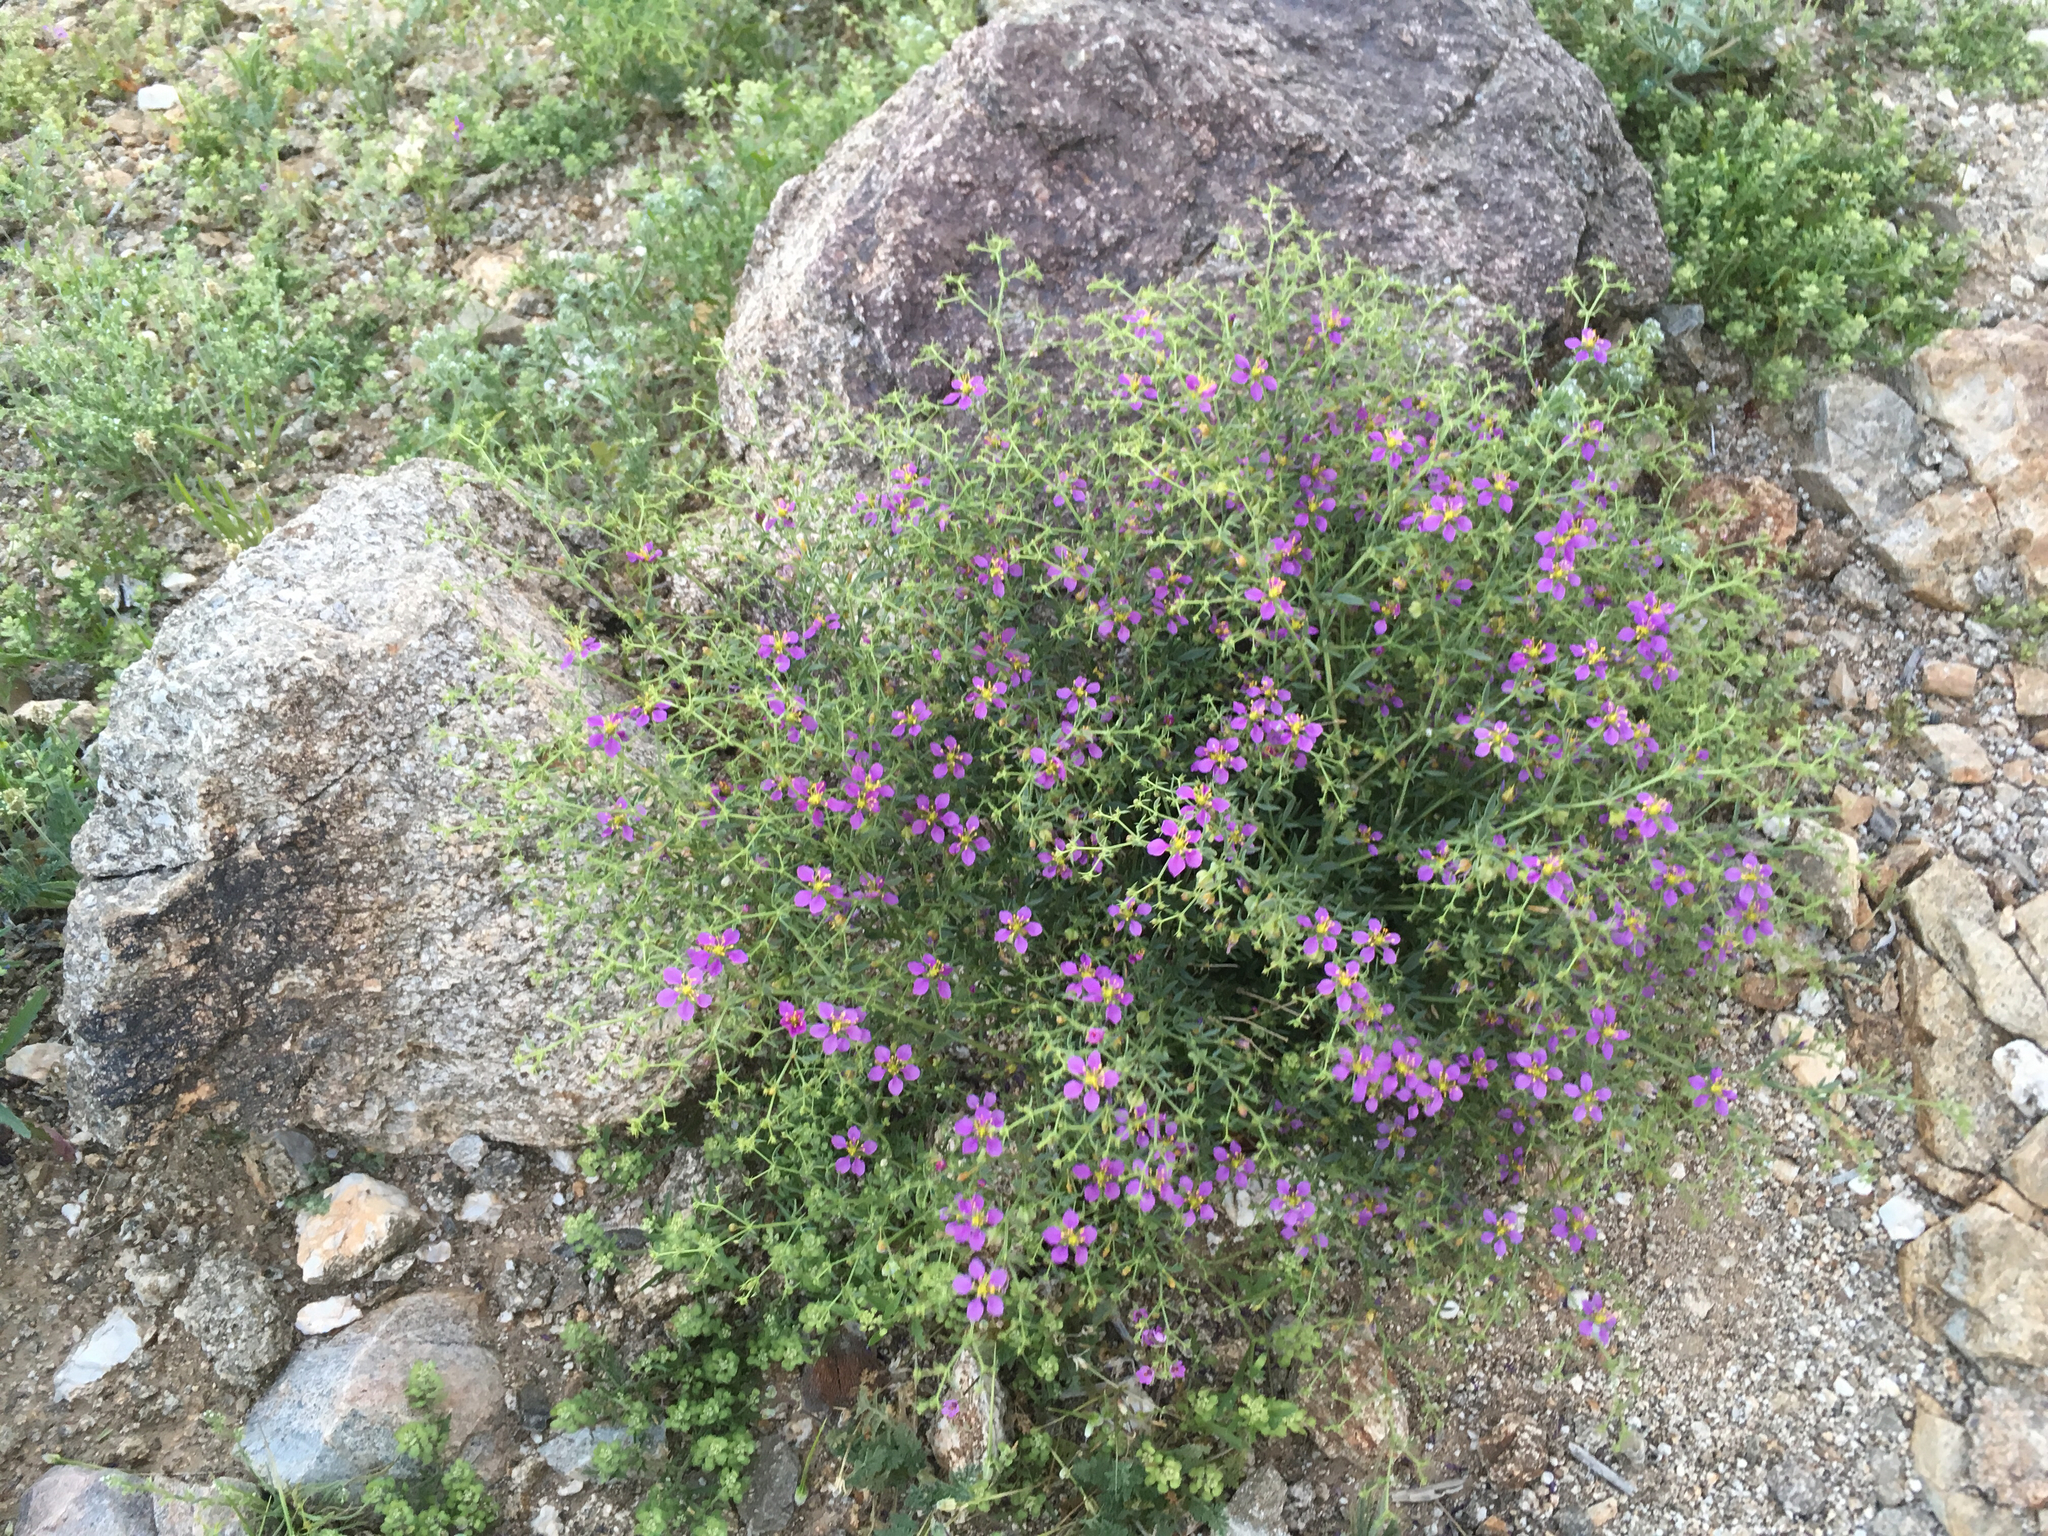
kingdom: Plantae
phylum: Tracheophyta
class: Magnoliopsida
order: Zygophyllales
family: Zygophyllaceae
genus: Fagonia
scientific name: Fagonia laevis
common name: California fagonbush
